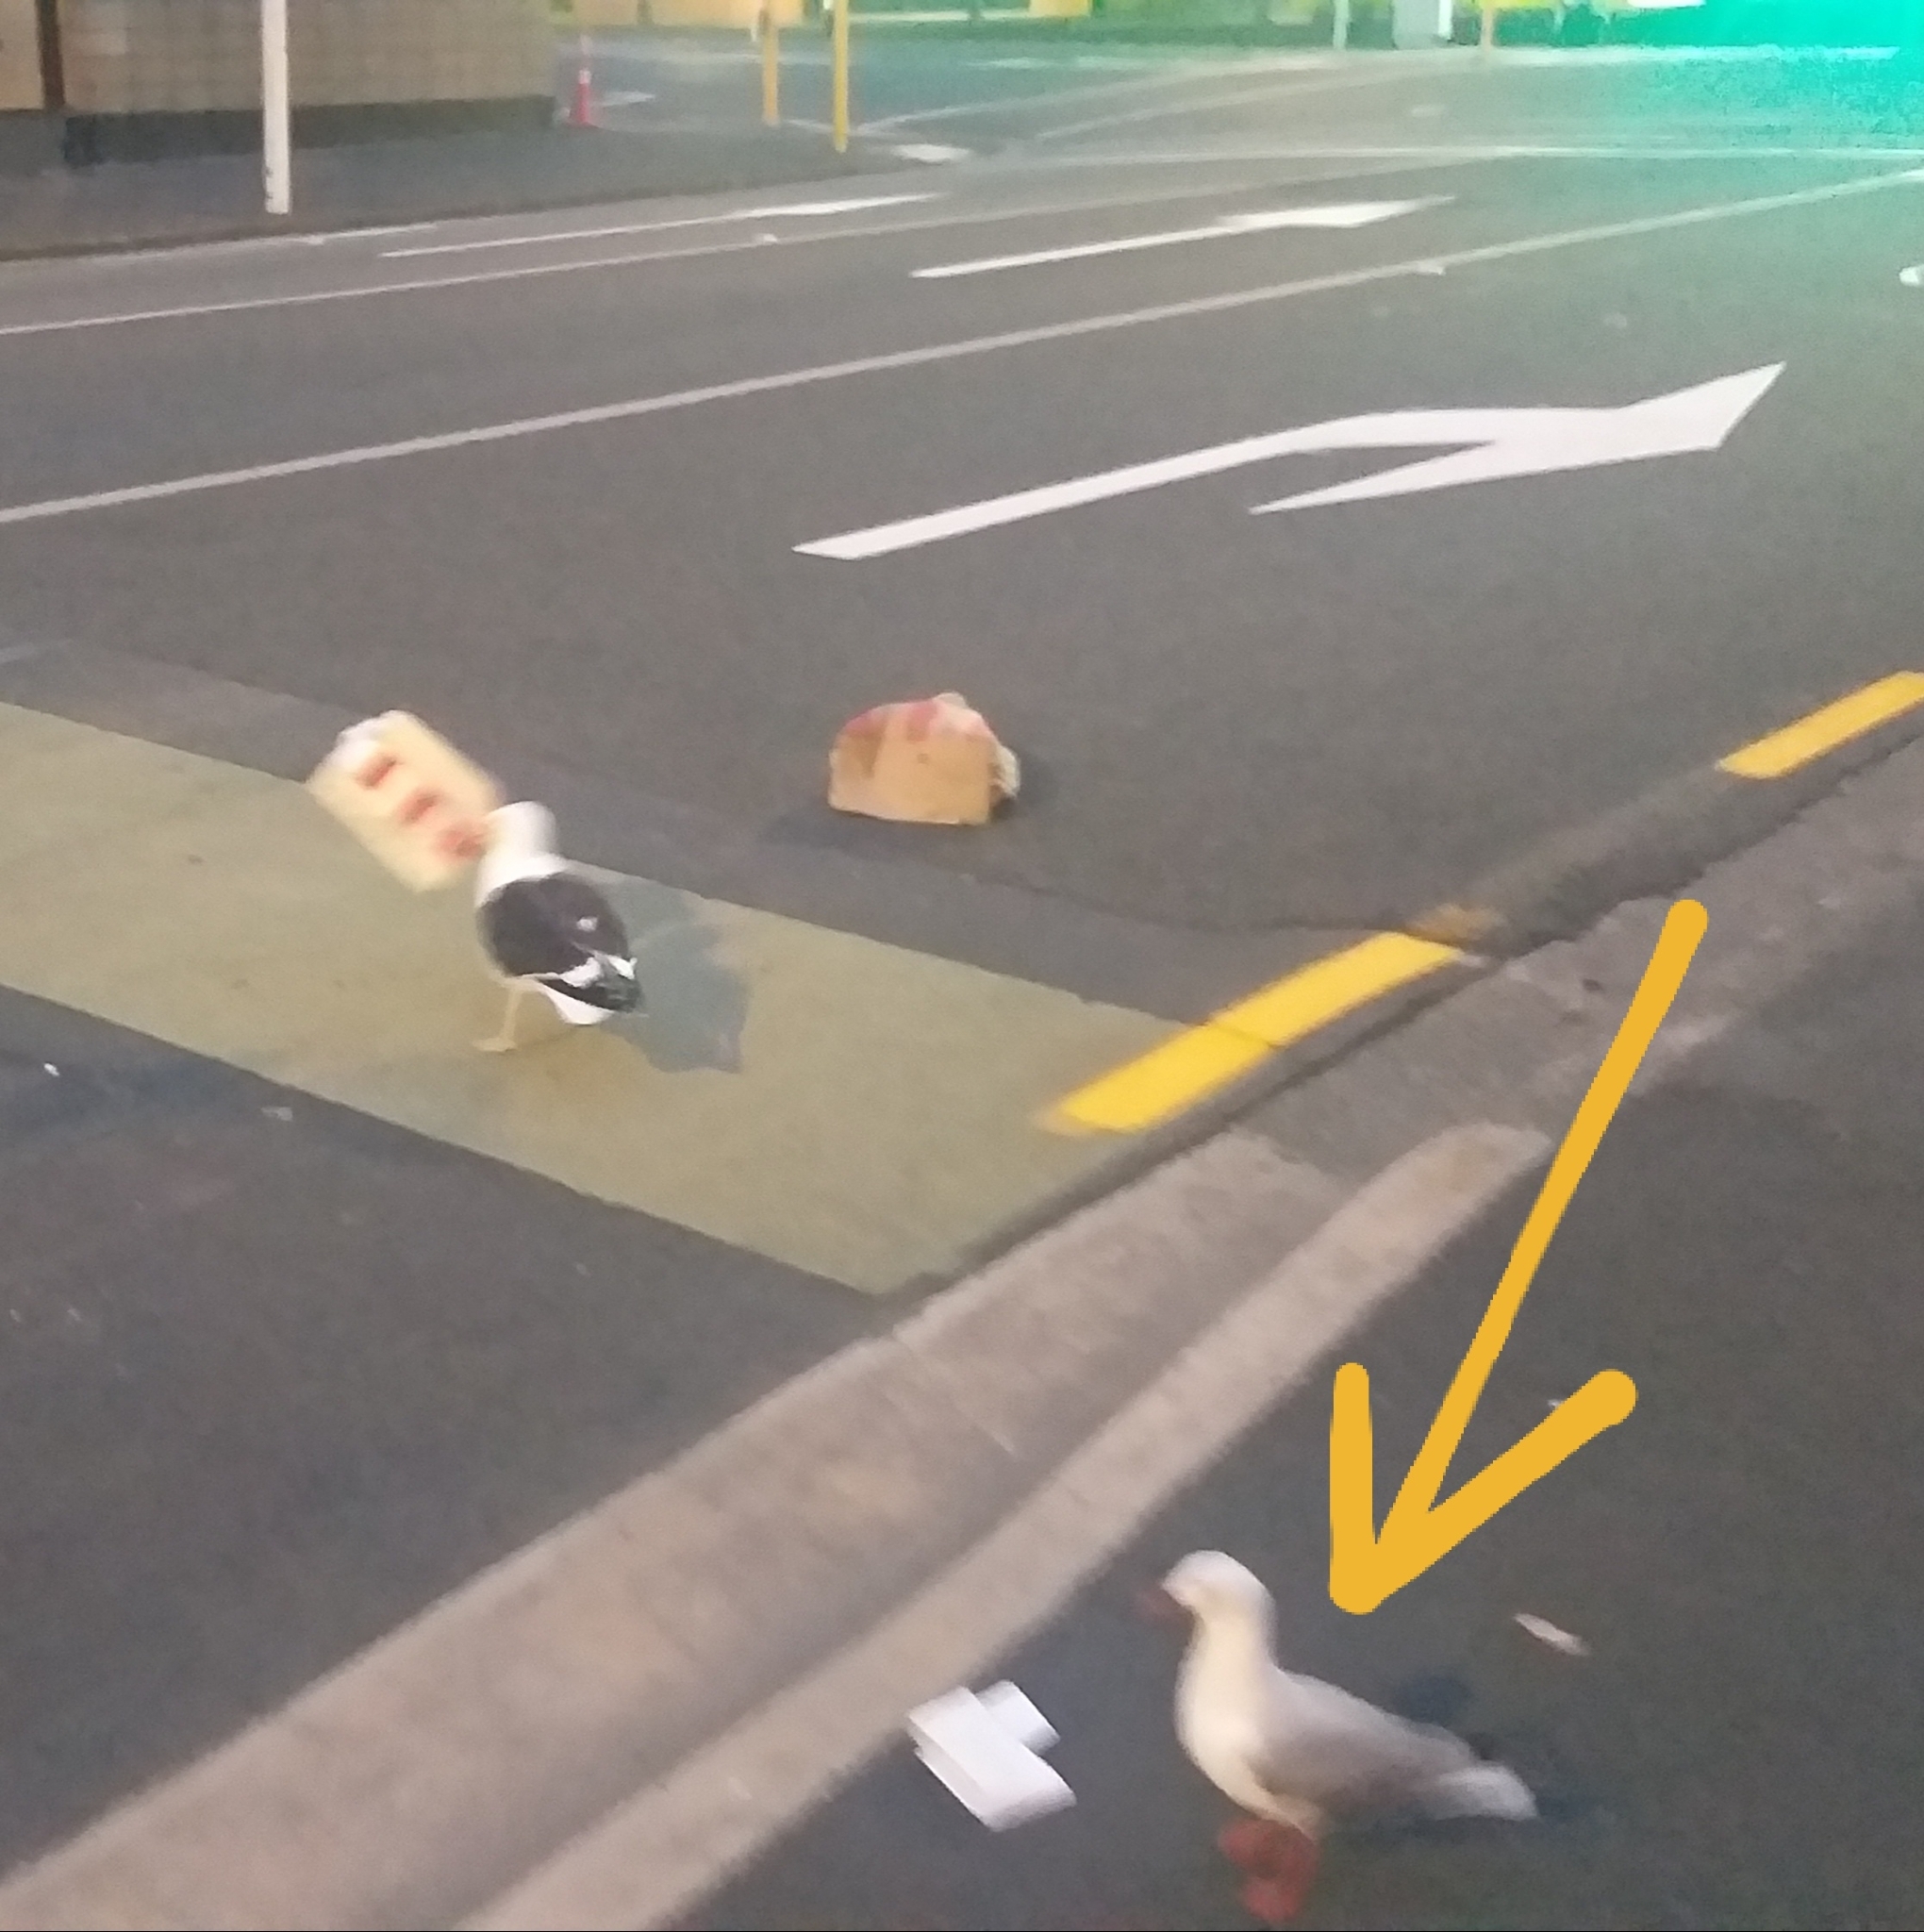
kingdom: Animalia
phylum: Chordata
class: Aves
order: Charadriiformes
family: Laridae
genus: Chroicocephalus
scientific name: Chroicocephalus novaehollandiae
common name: Silver gull
